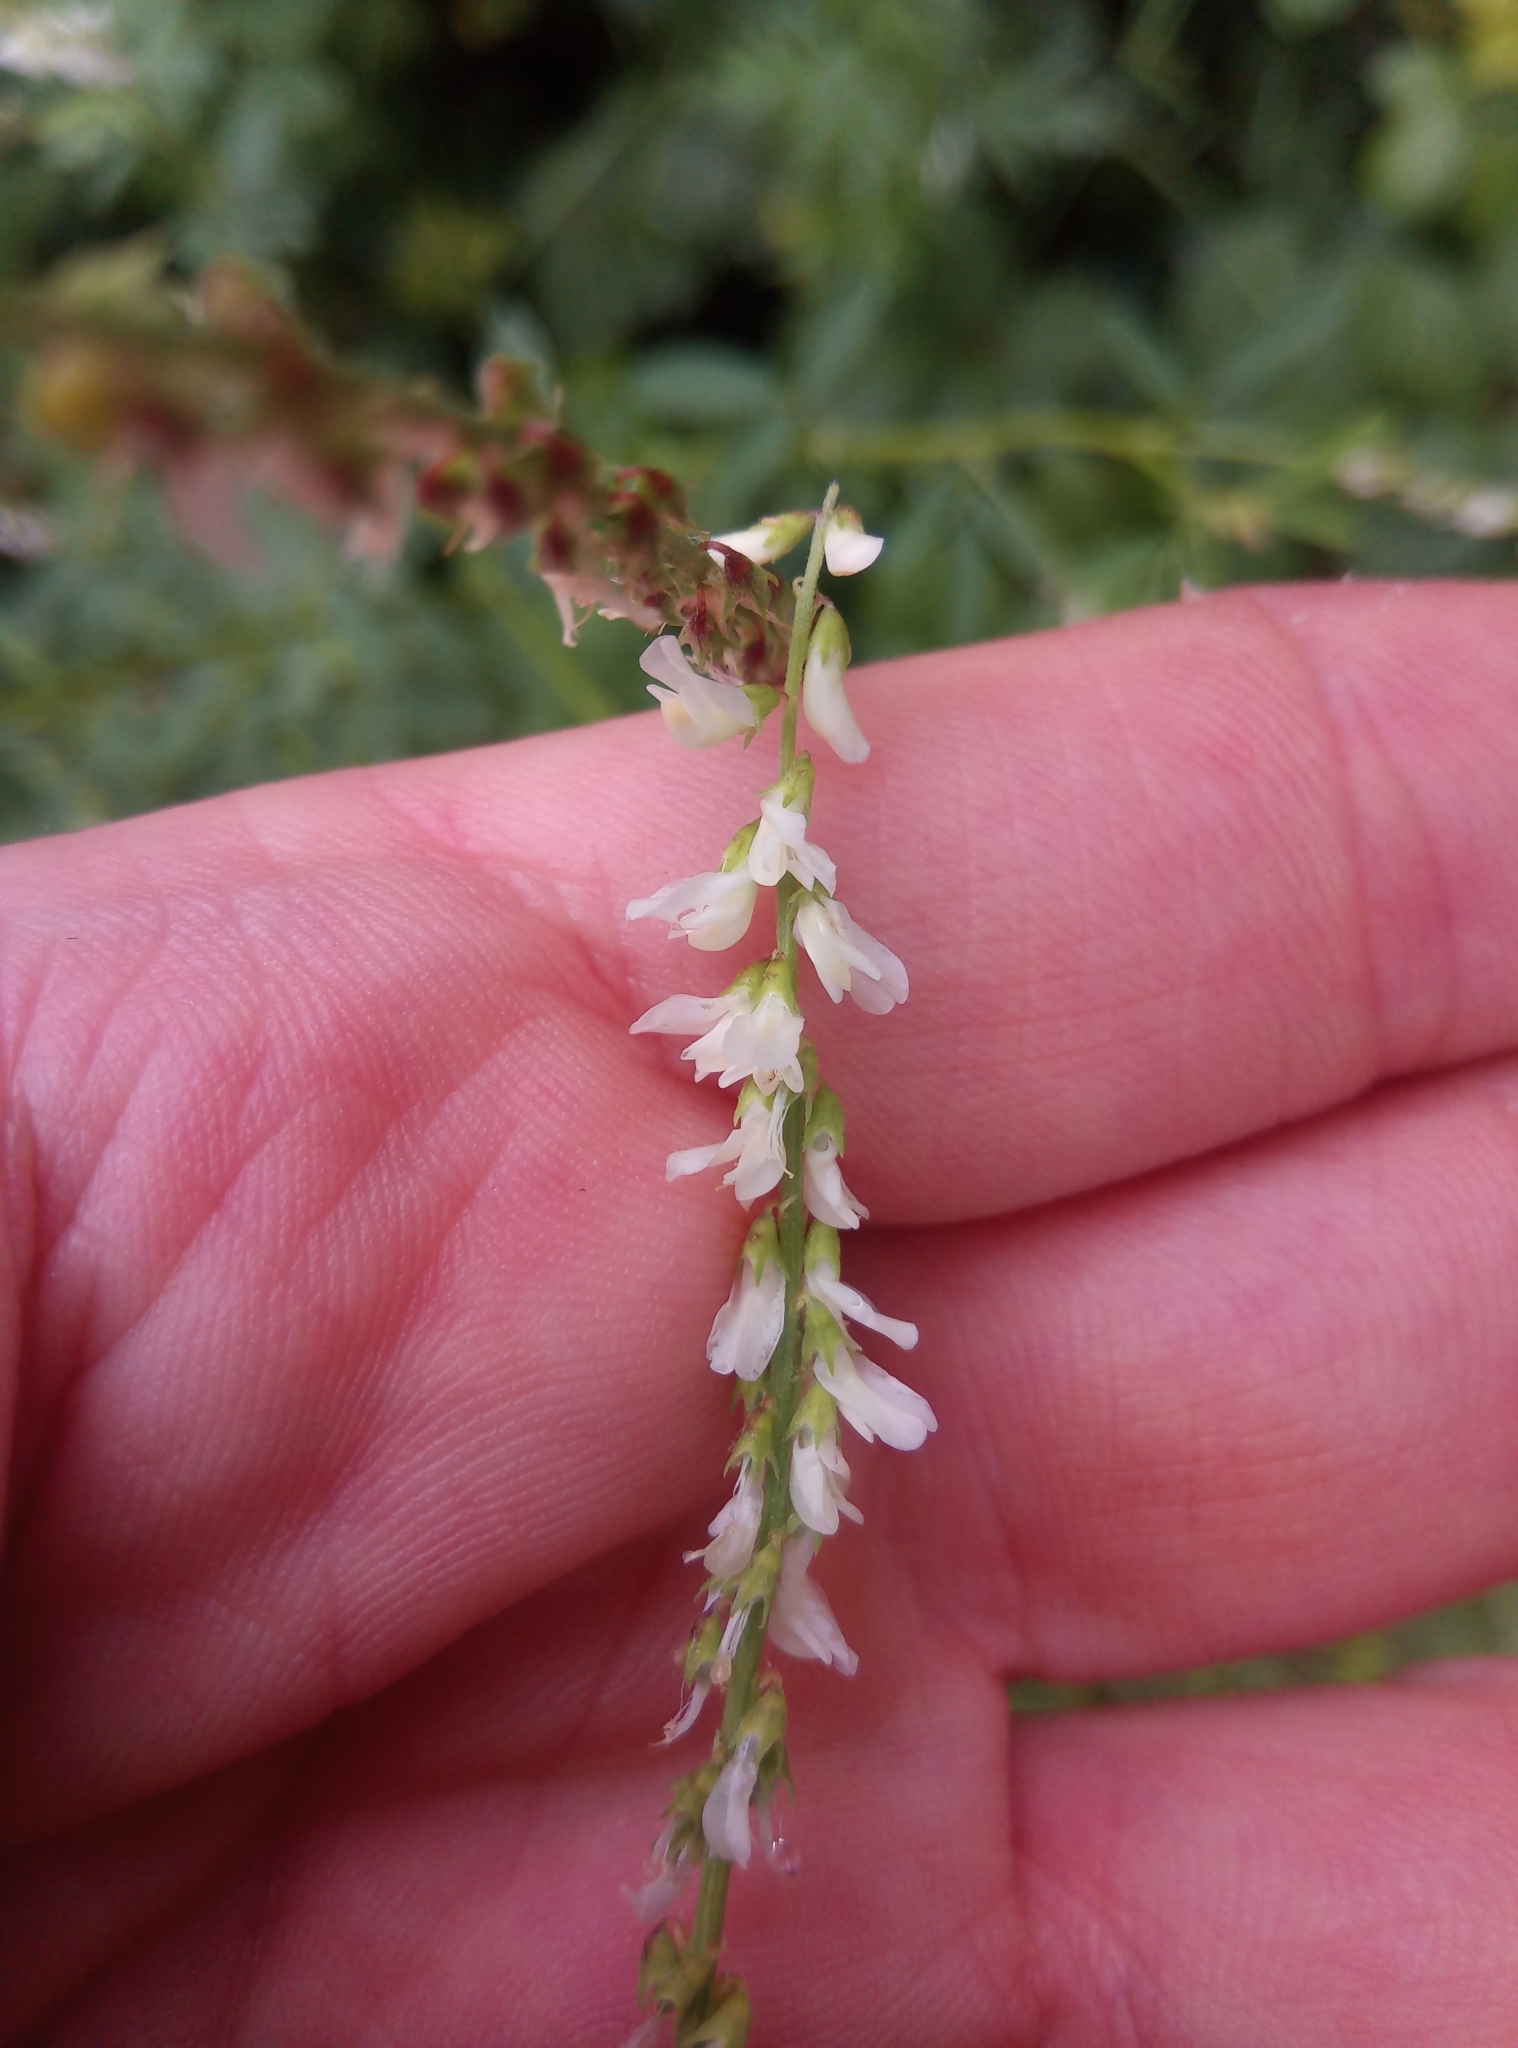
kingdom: Plantae
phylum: Tracheophyta
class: Magnoliopsida
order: Fabales
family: Fabaceae
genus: Melilotus
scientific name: Melilotus albus
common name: White melilot
